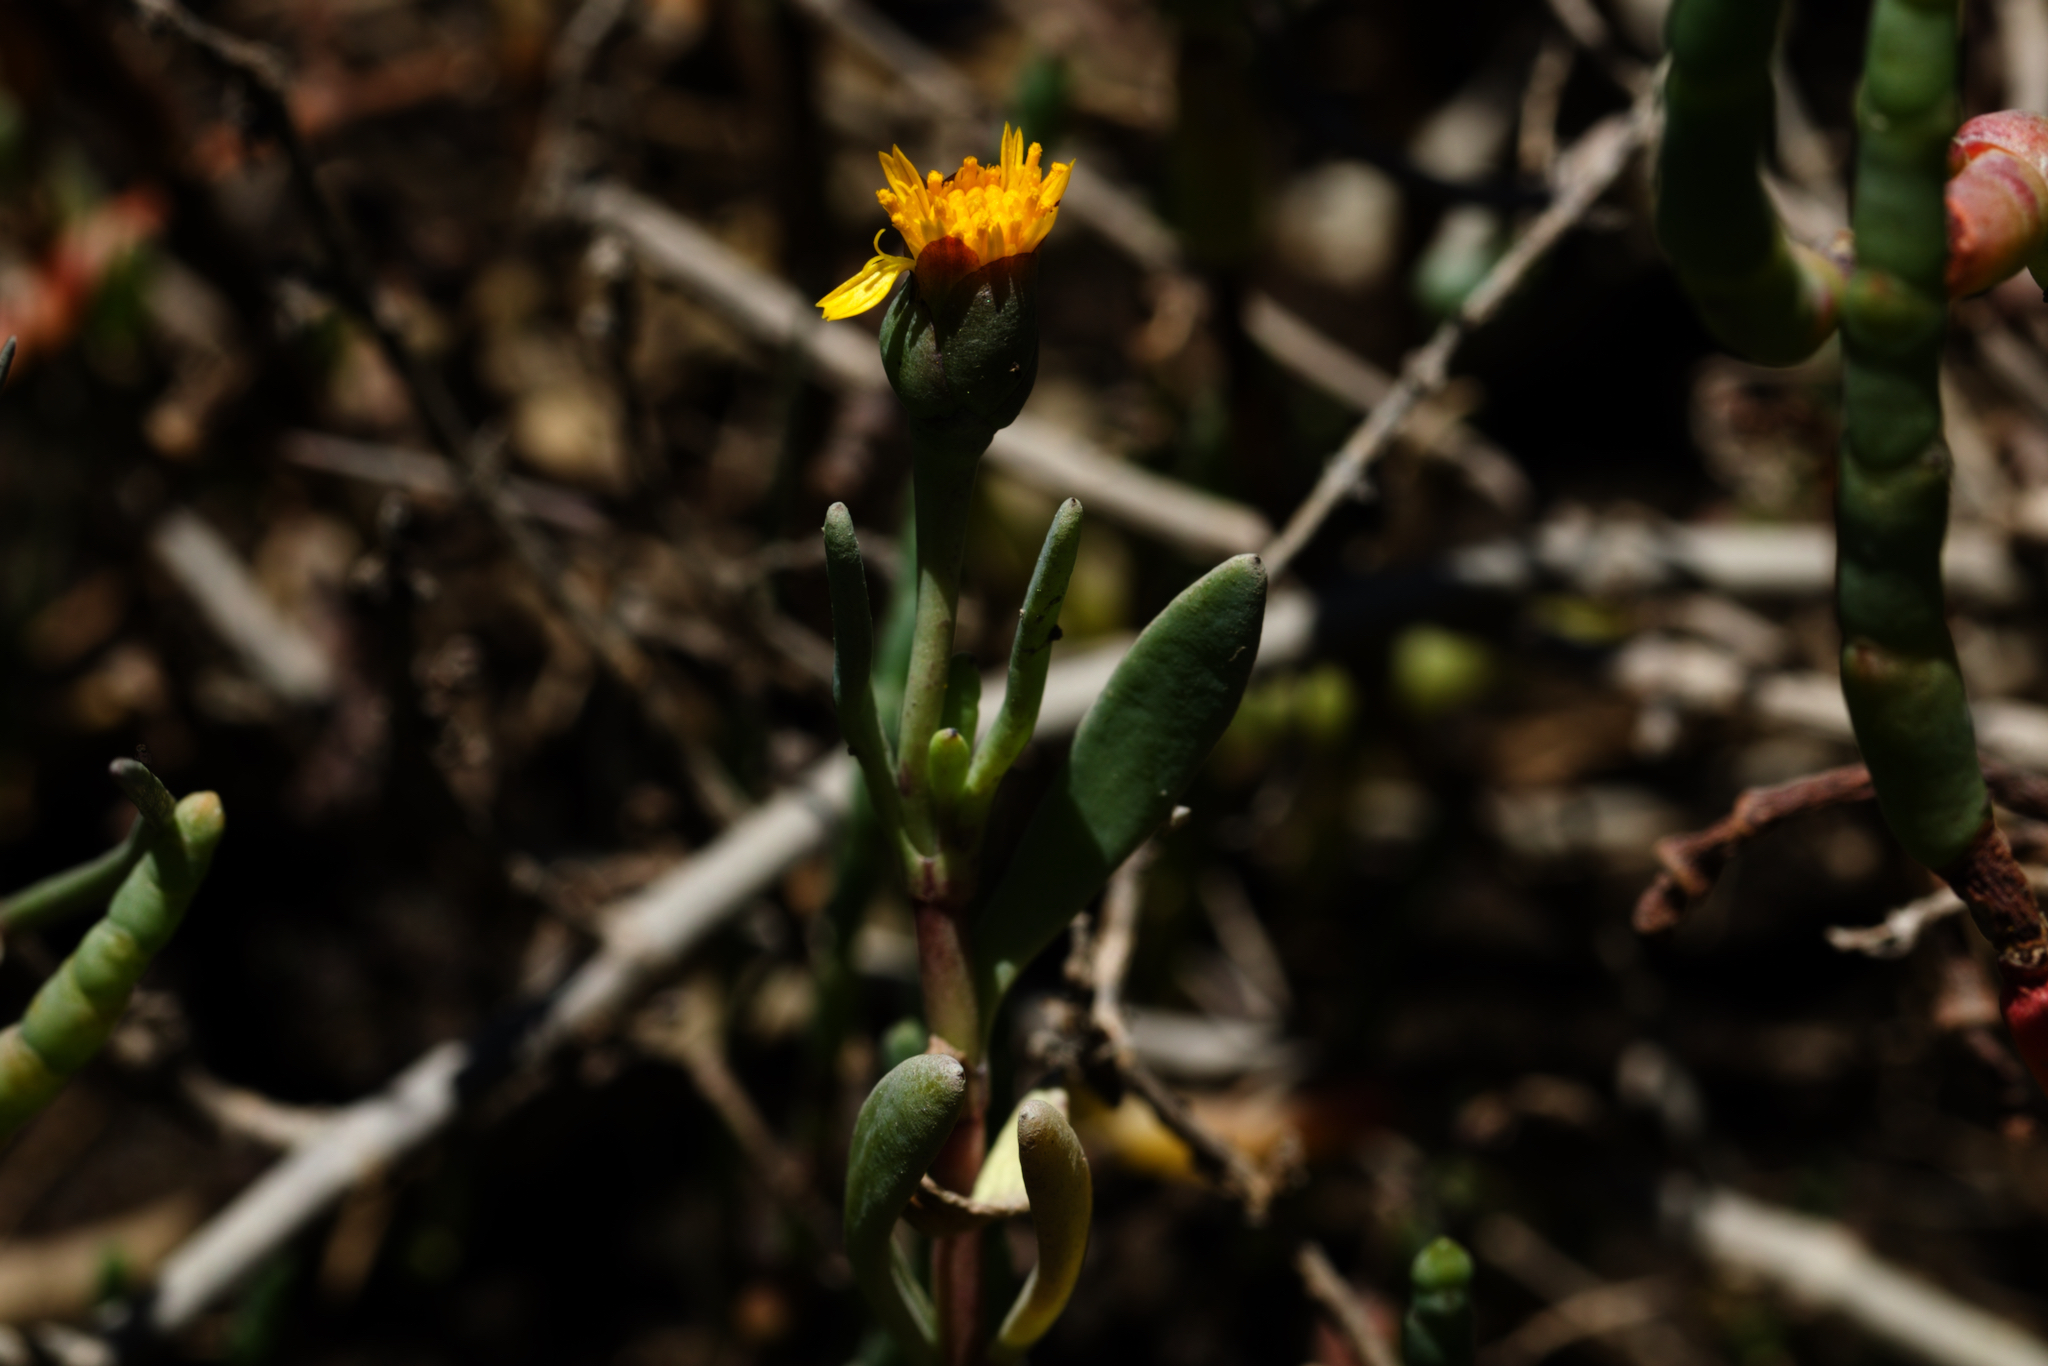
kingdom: Plantae
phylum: Tracheophyta
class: Magnoliopsida
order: Asterales
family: Asteraceae
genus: Jaumea
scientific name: Jaumea carnosa
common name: Fleshy jaumea
